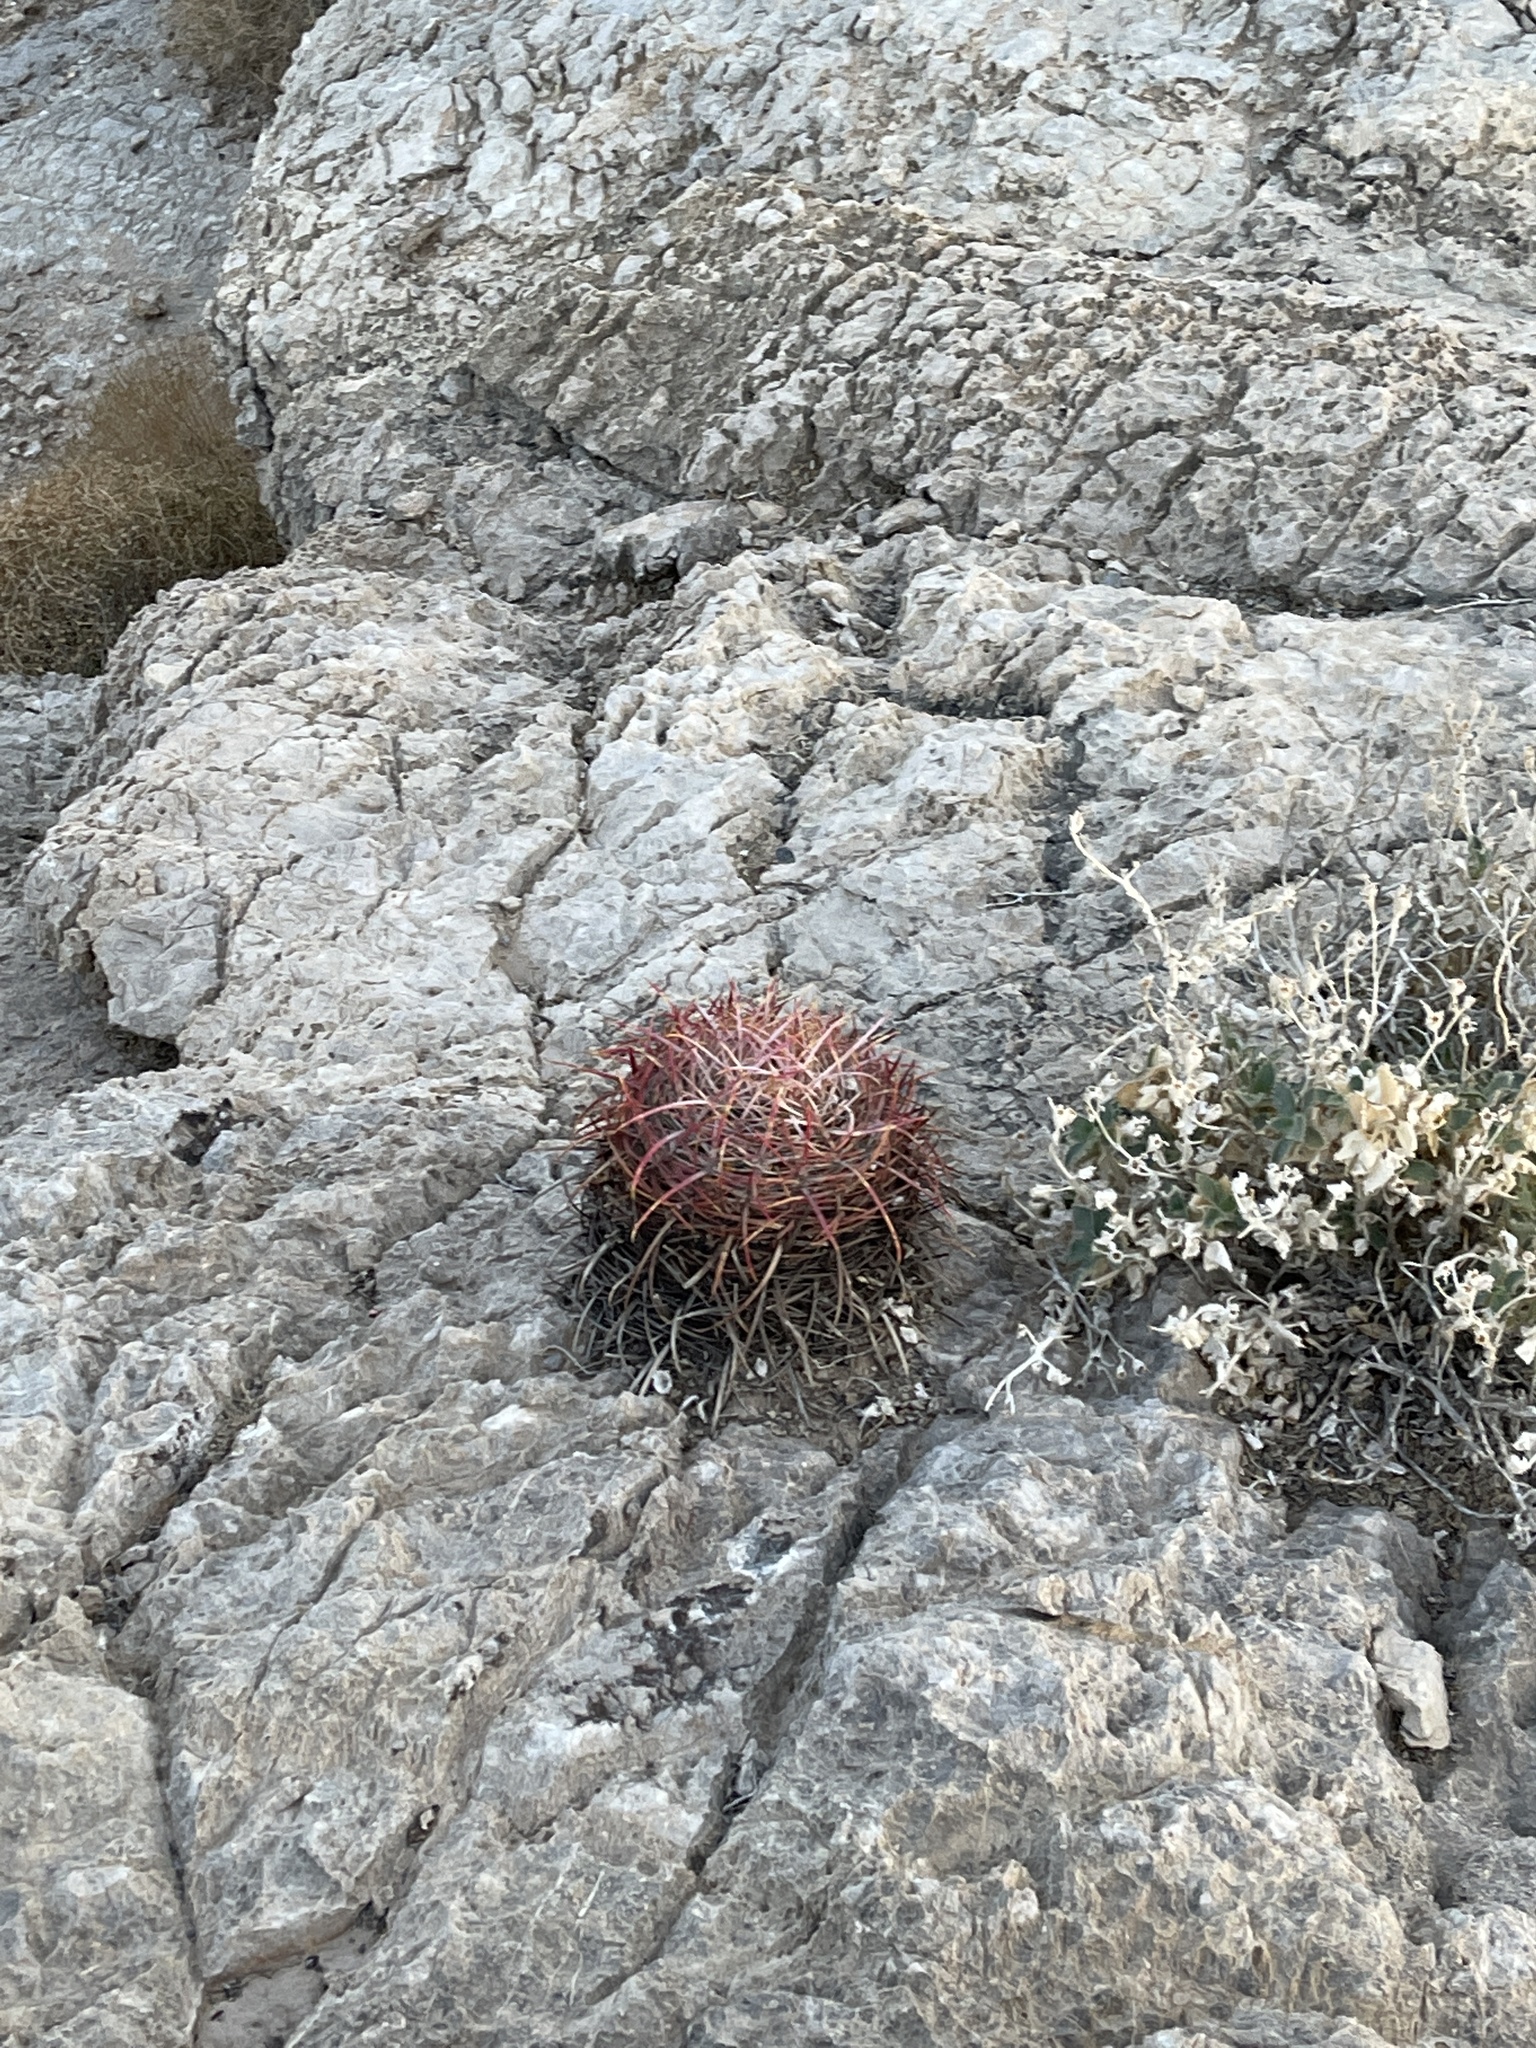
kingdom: Plantae
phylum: Tracheophyta
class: Magnoliopsida
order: Caryophyllales
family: Cactaceae
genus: Ferocactus
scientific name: Ferocactus cylindraceus
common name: California barrel cactus
